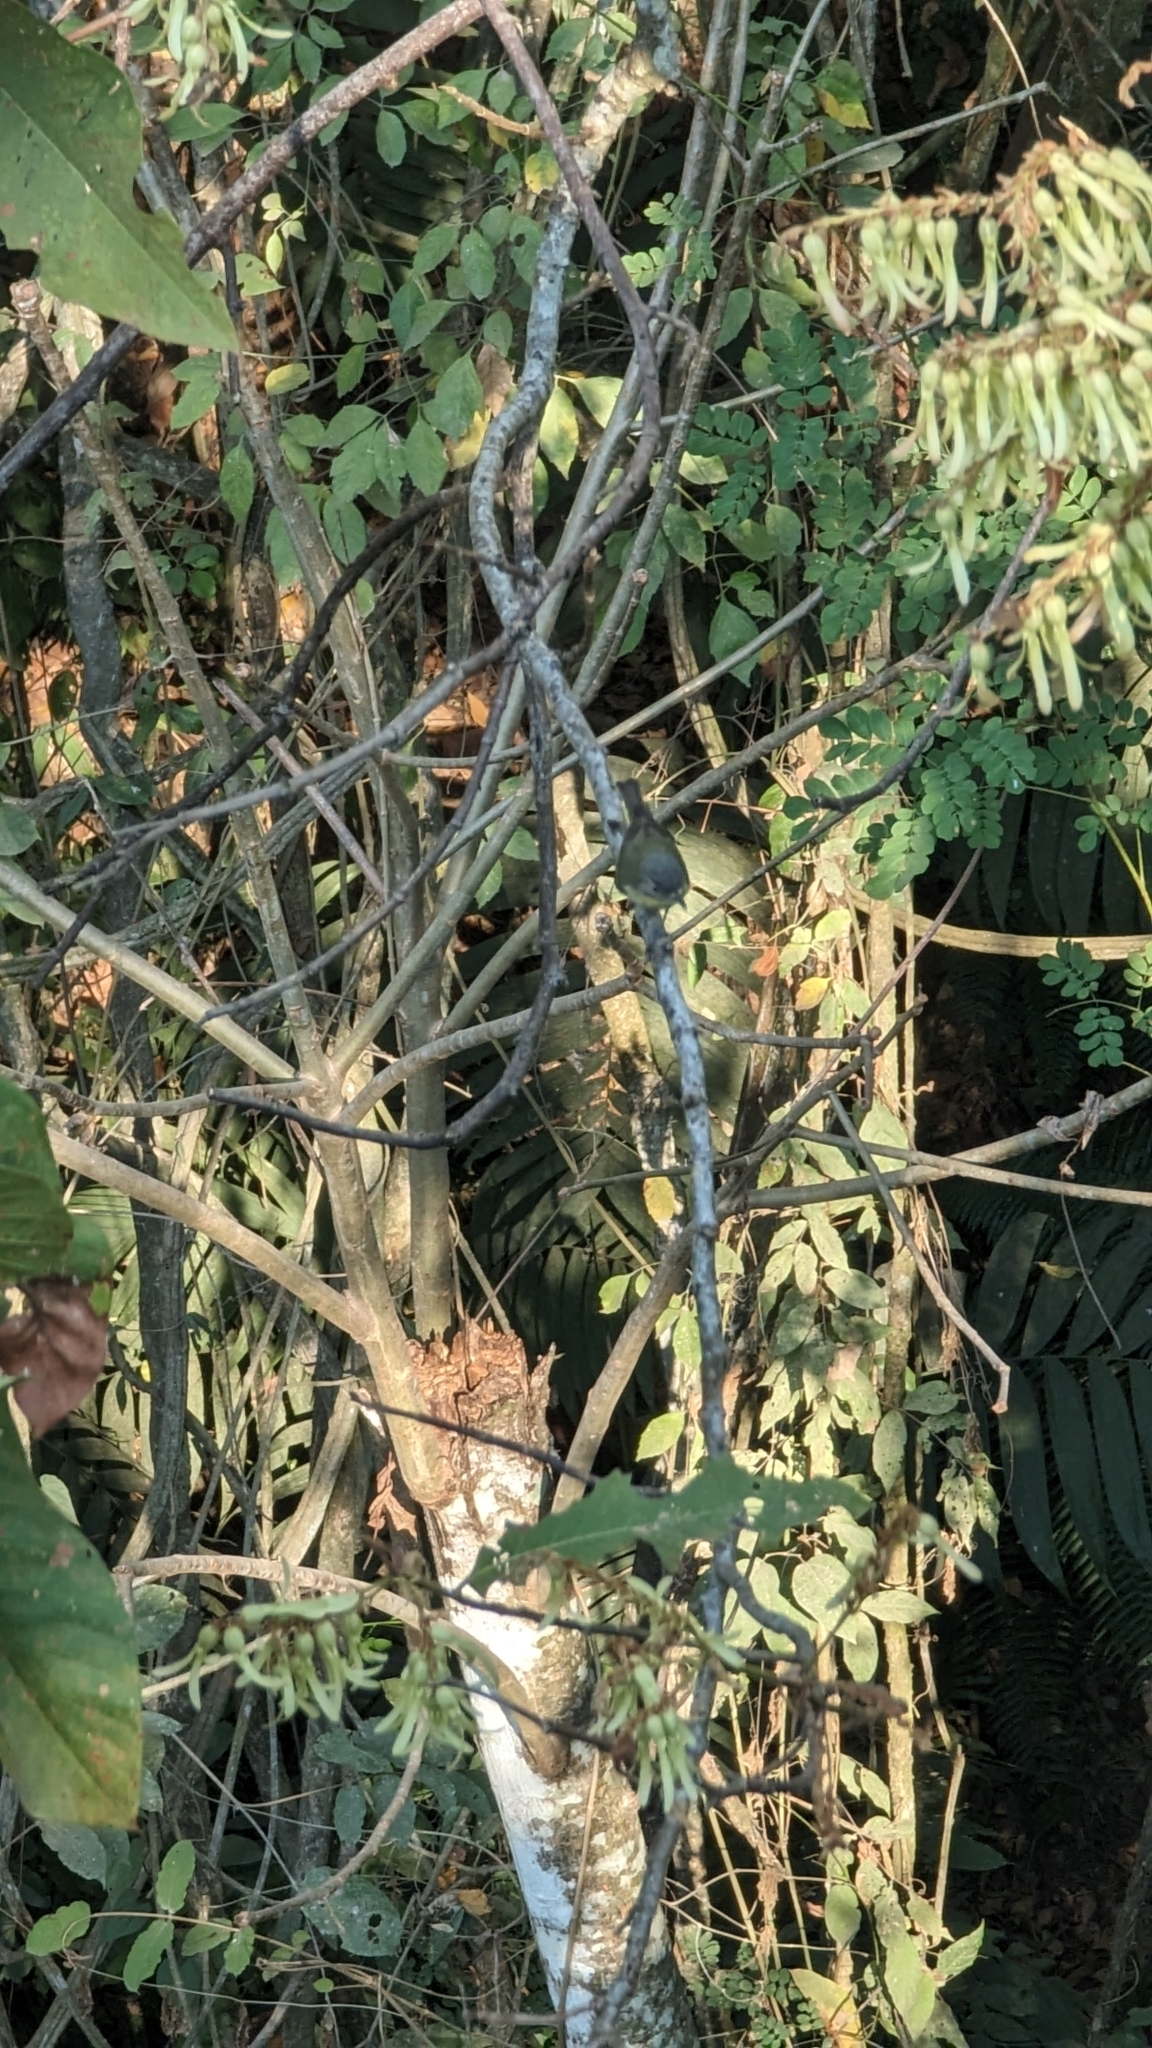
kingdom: Animalia
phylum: Chordata
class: Aves
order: Passeriformes
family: Vireonidae
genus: Vireo
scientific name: Vireo philadelphicus
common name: Philadelphia vireo
